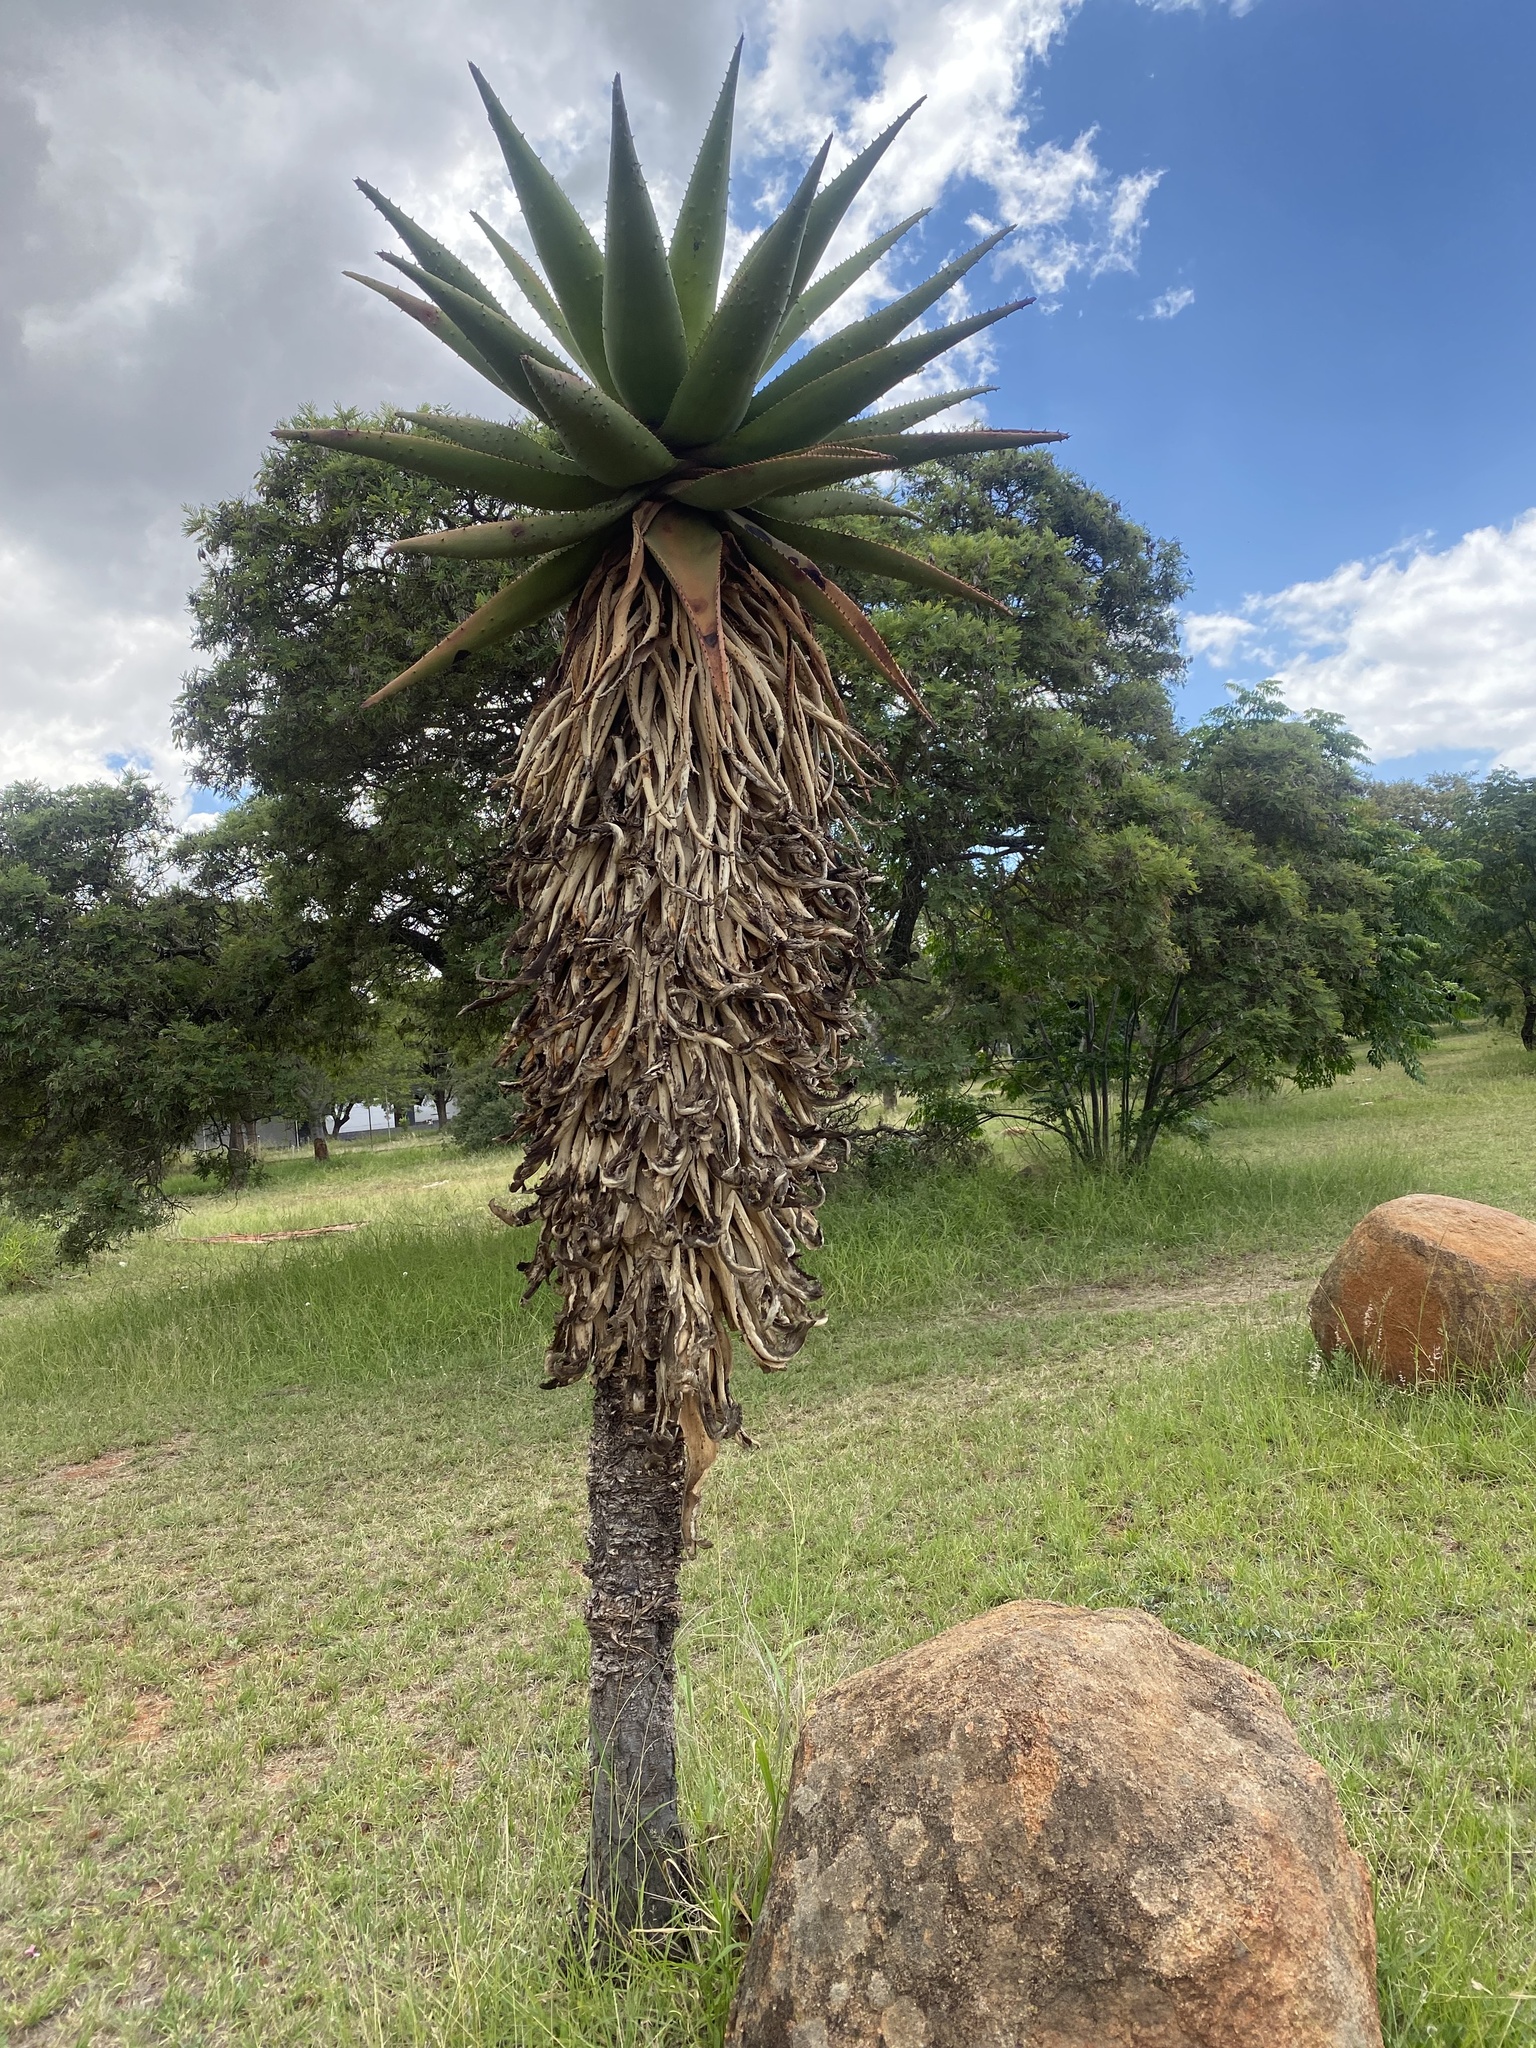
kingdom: Plantae
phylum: Tracheophyta
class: Liliopsida
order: Asparagales
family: Asphodelaceae
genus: Aloe
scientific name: Aloe marlothii
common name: Flat-flowered aloe
